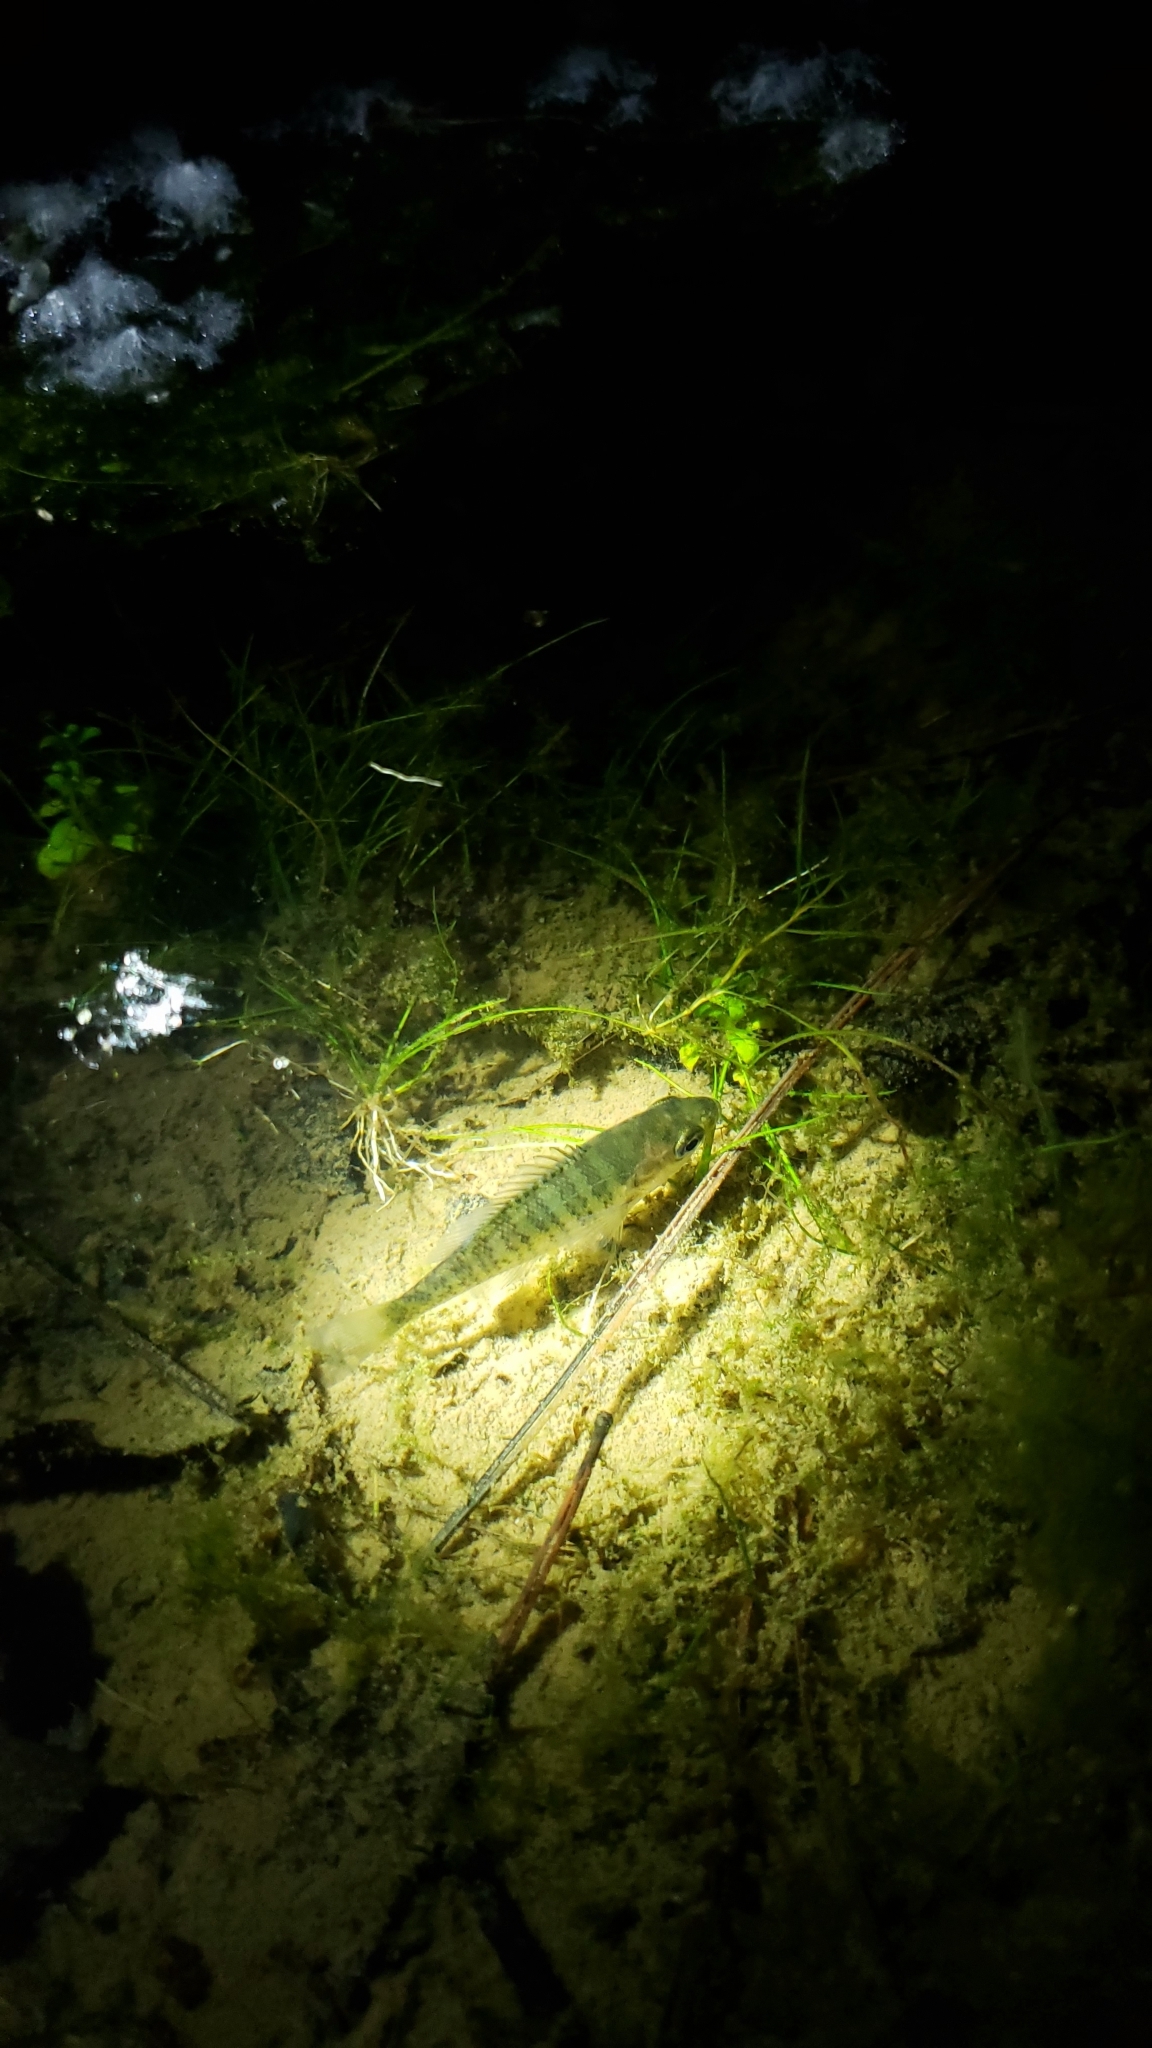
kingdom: Animalia
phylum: Chordata
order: Perciformes
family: Centrarchidae
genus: Lepomis
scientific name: Lepomis macrochirus
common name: Bluegill
